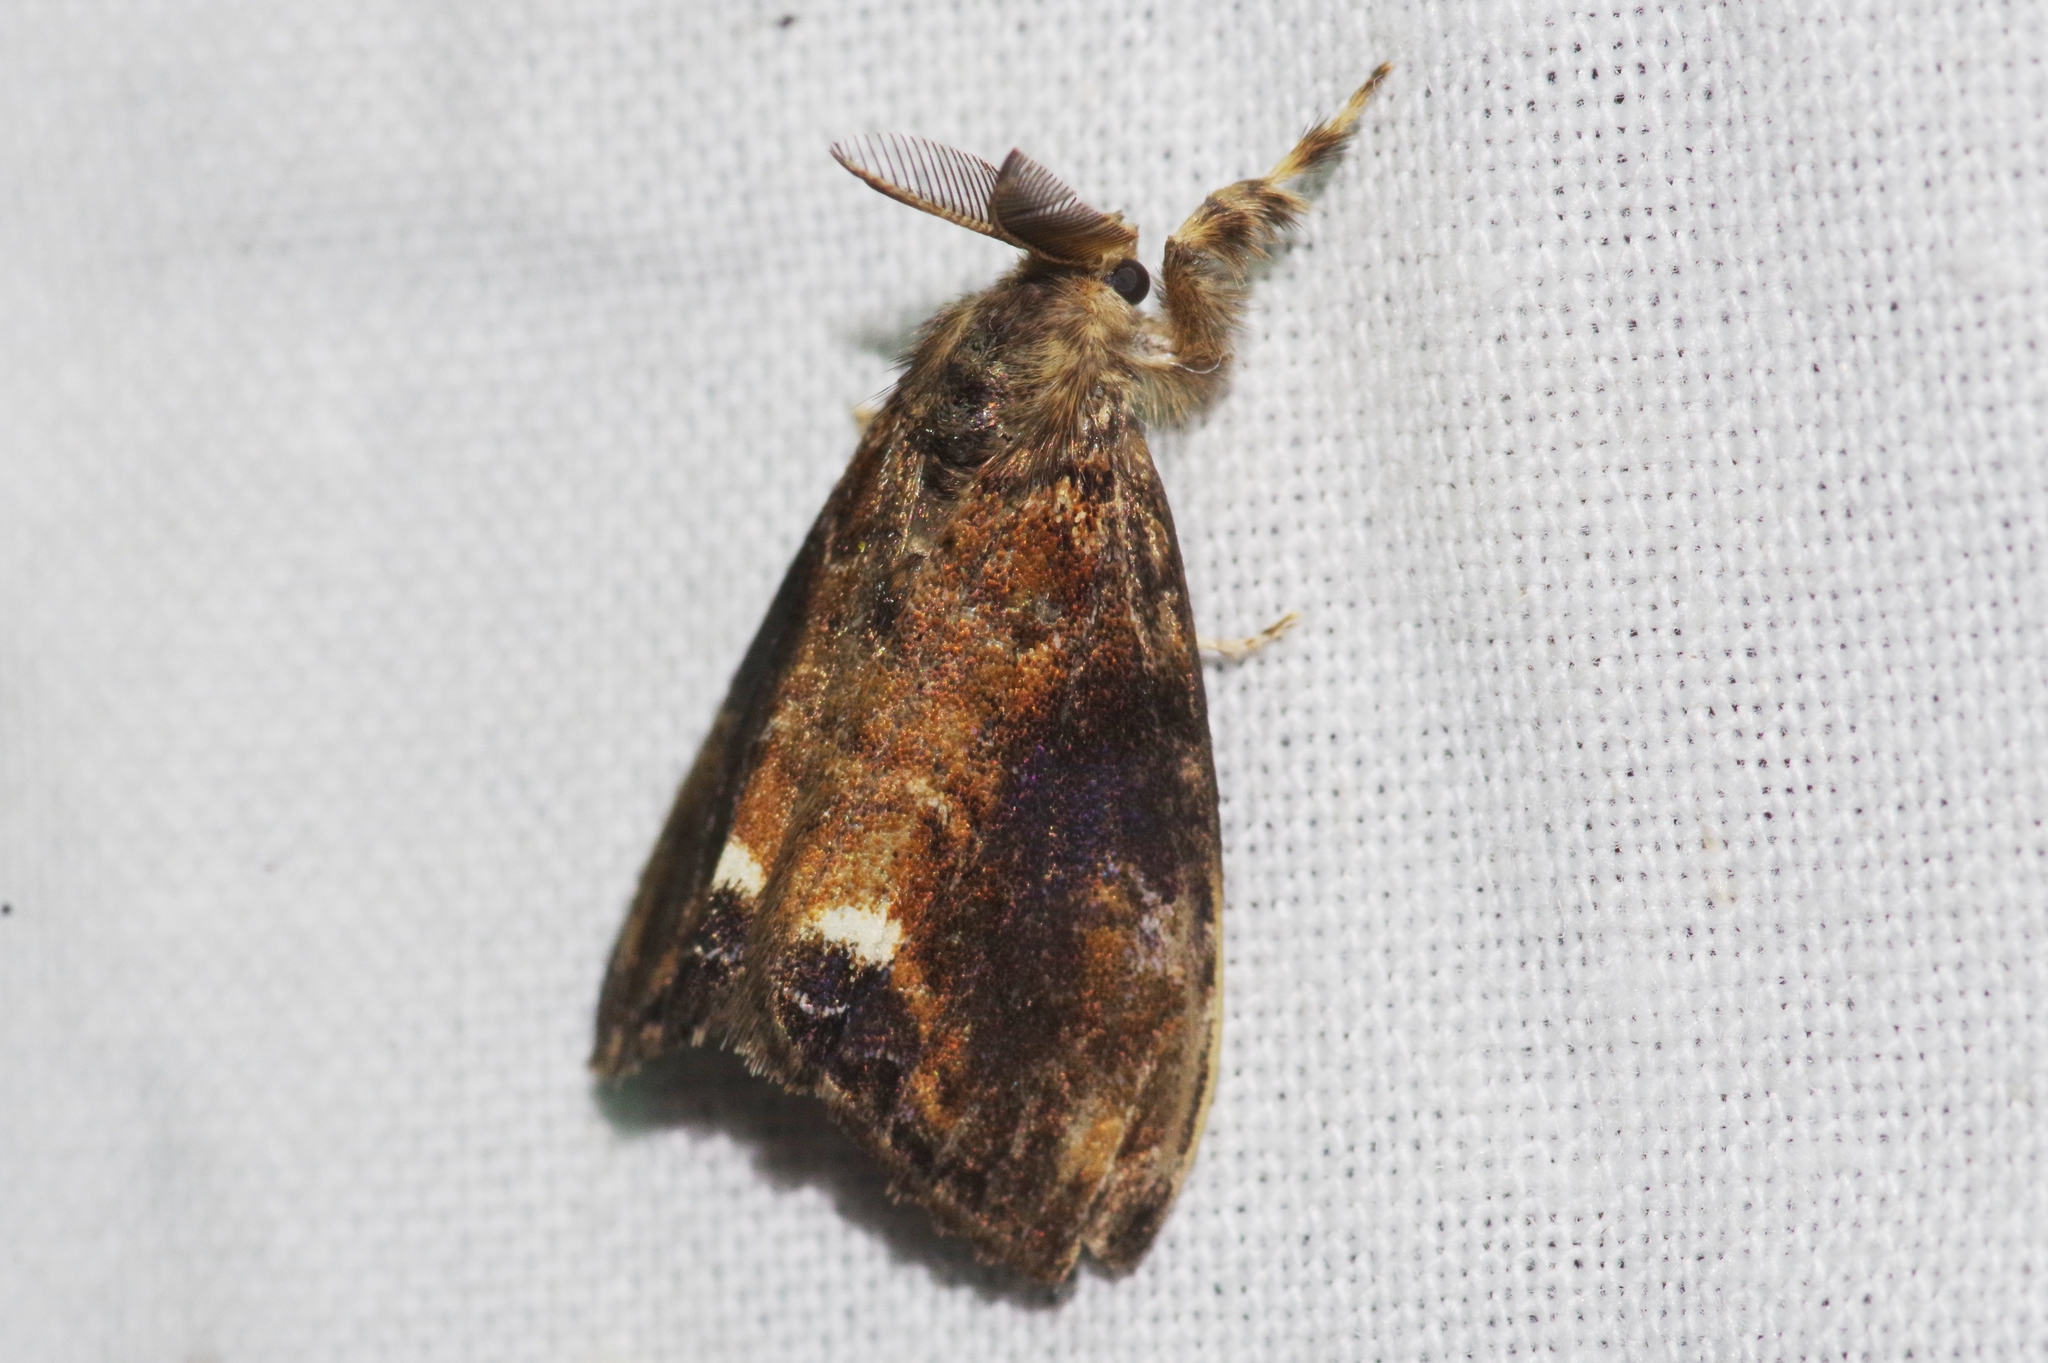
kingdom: Animalia
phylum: Arthropoda
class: Insecta
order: Lepidoptera
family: Erebidae
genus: Orgyia
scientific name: Orgyia thyellina
